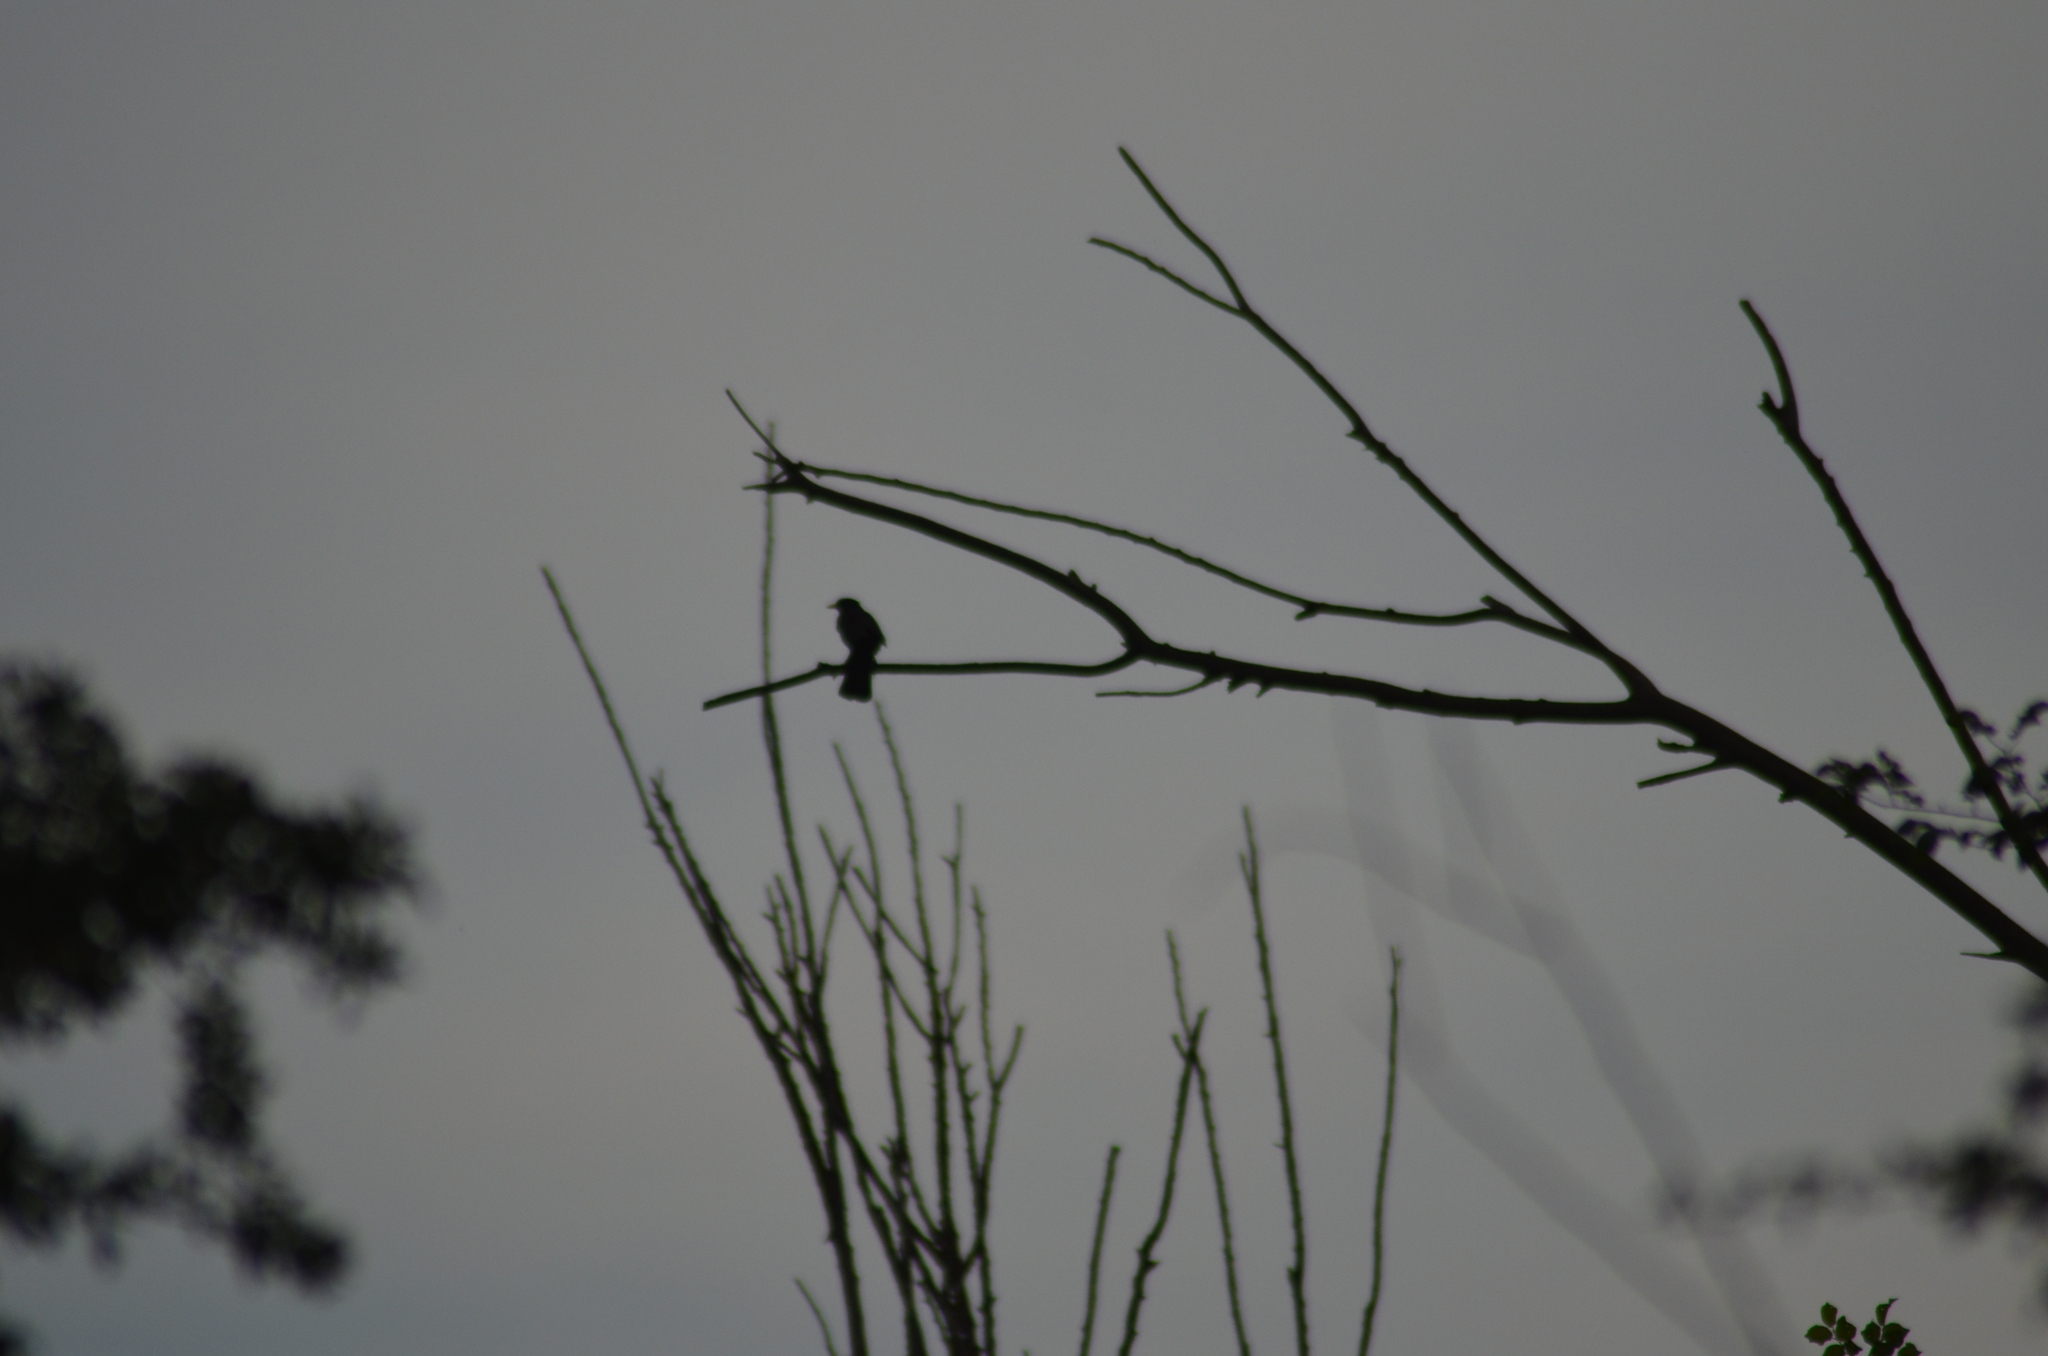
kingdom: Animalia
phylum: Chordata
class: Aves
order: Passeriformes
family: Turdidae
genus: Turdus
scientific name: Turdus merula
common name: Common blackbird
